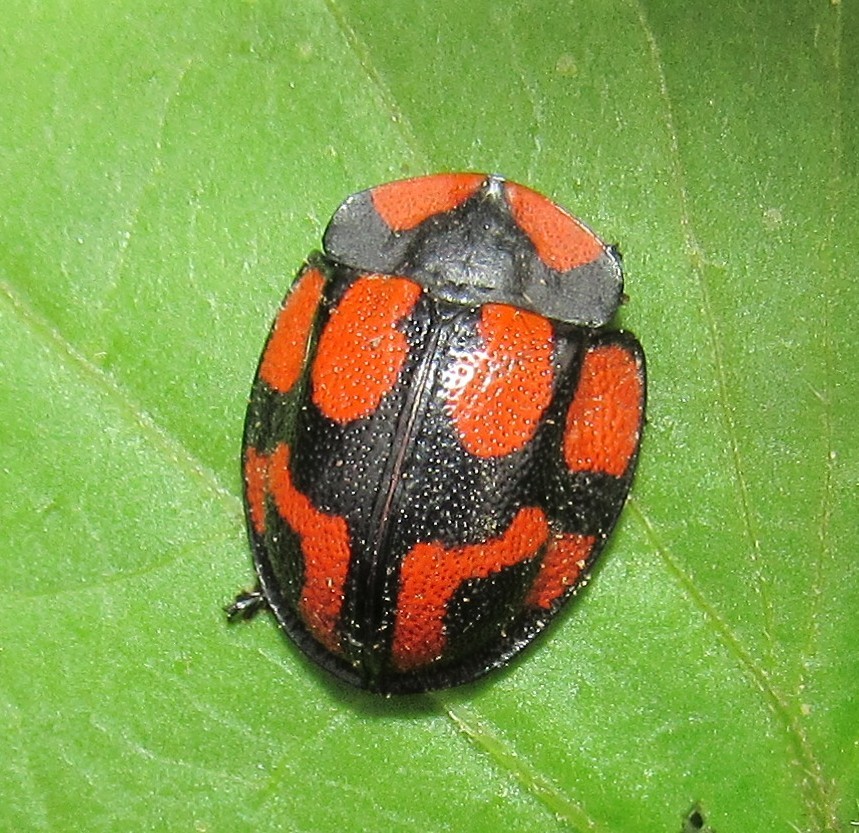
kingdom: Animalia
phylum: Arthropoda
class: Insecta
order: Coleoptera
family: Chrysomelidae
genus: Botanochara
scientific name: Botanochara angulata
